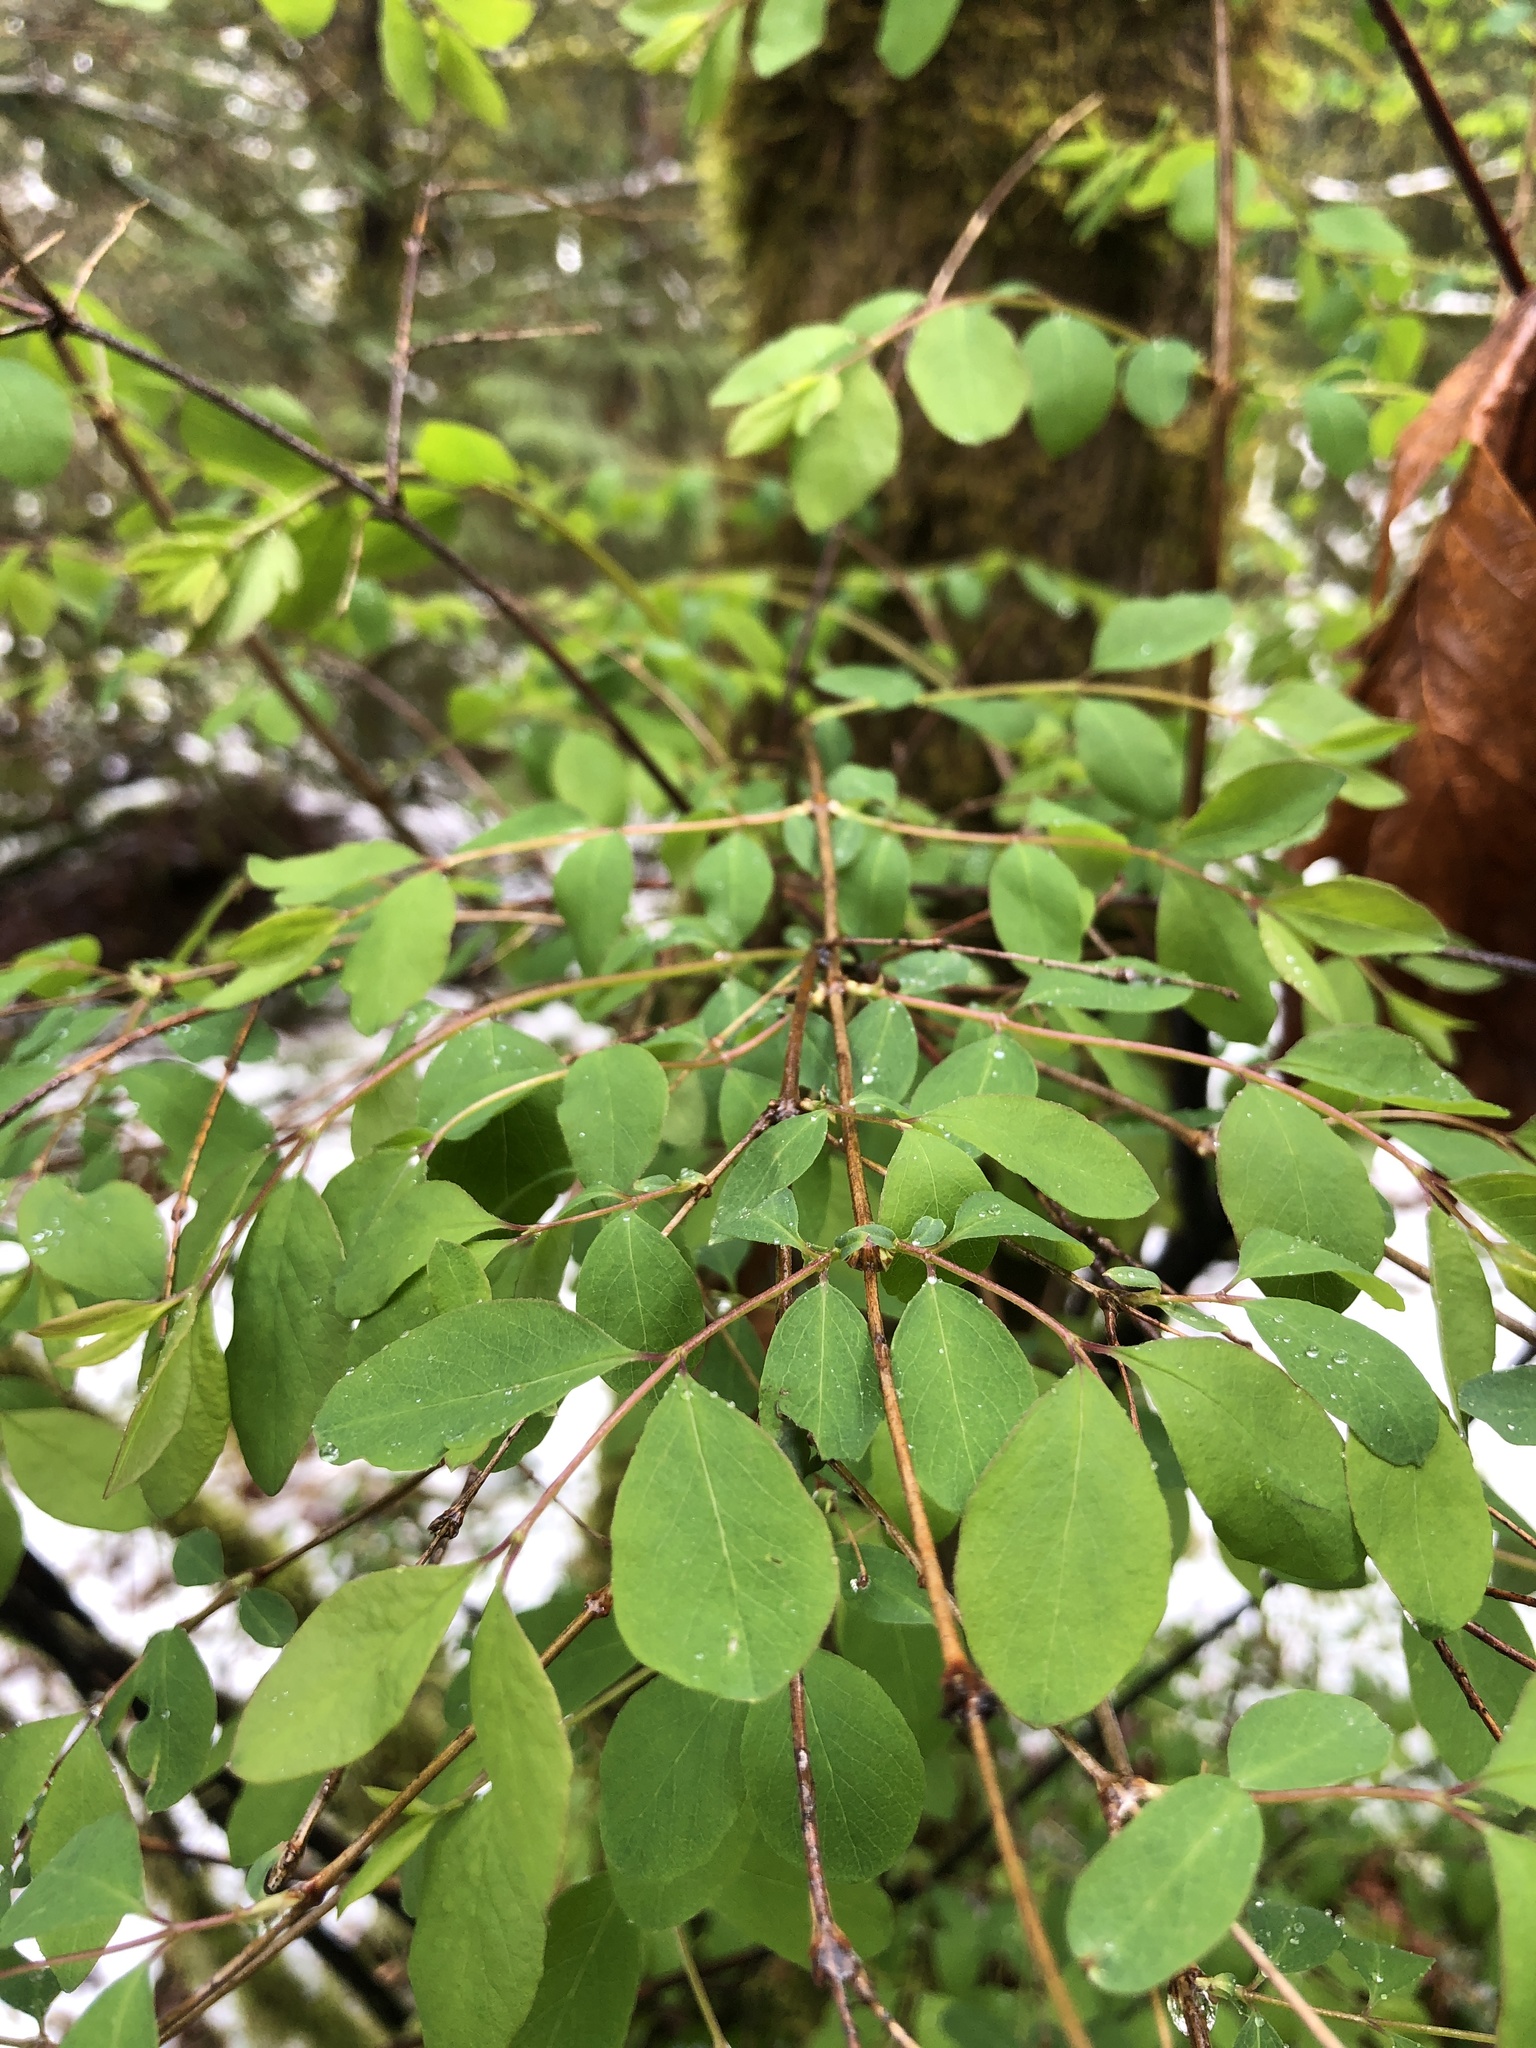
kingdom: Plantae
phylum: Tracheophyta
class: Magnoliopsida
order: Dipsacales
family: Caprifoliaceae
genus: Symphoricarpos
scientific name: Symphoricarpos albus
